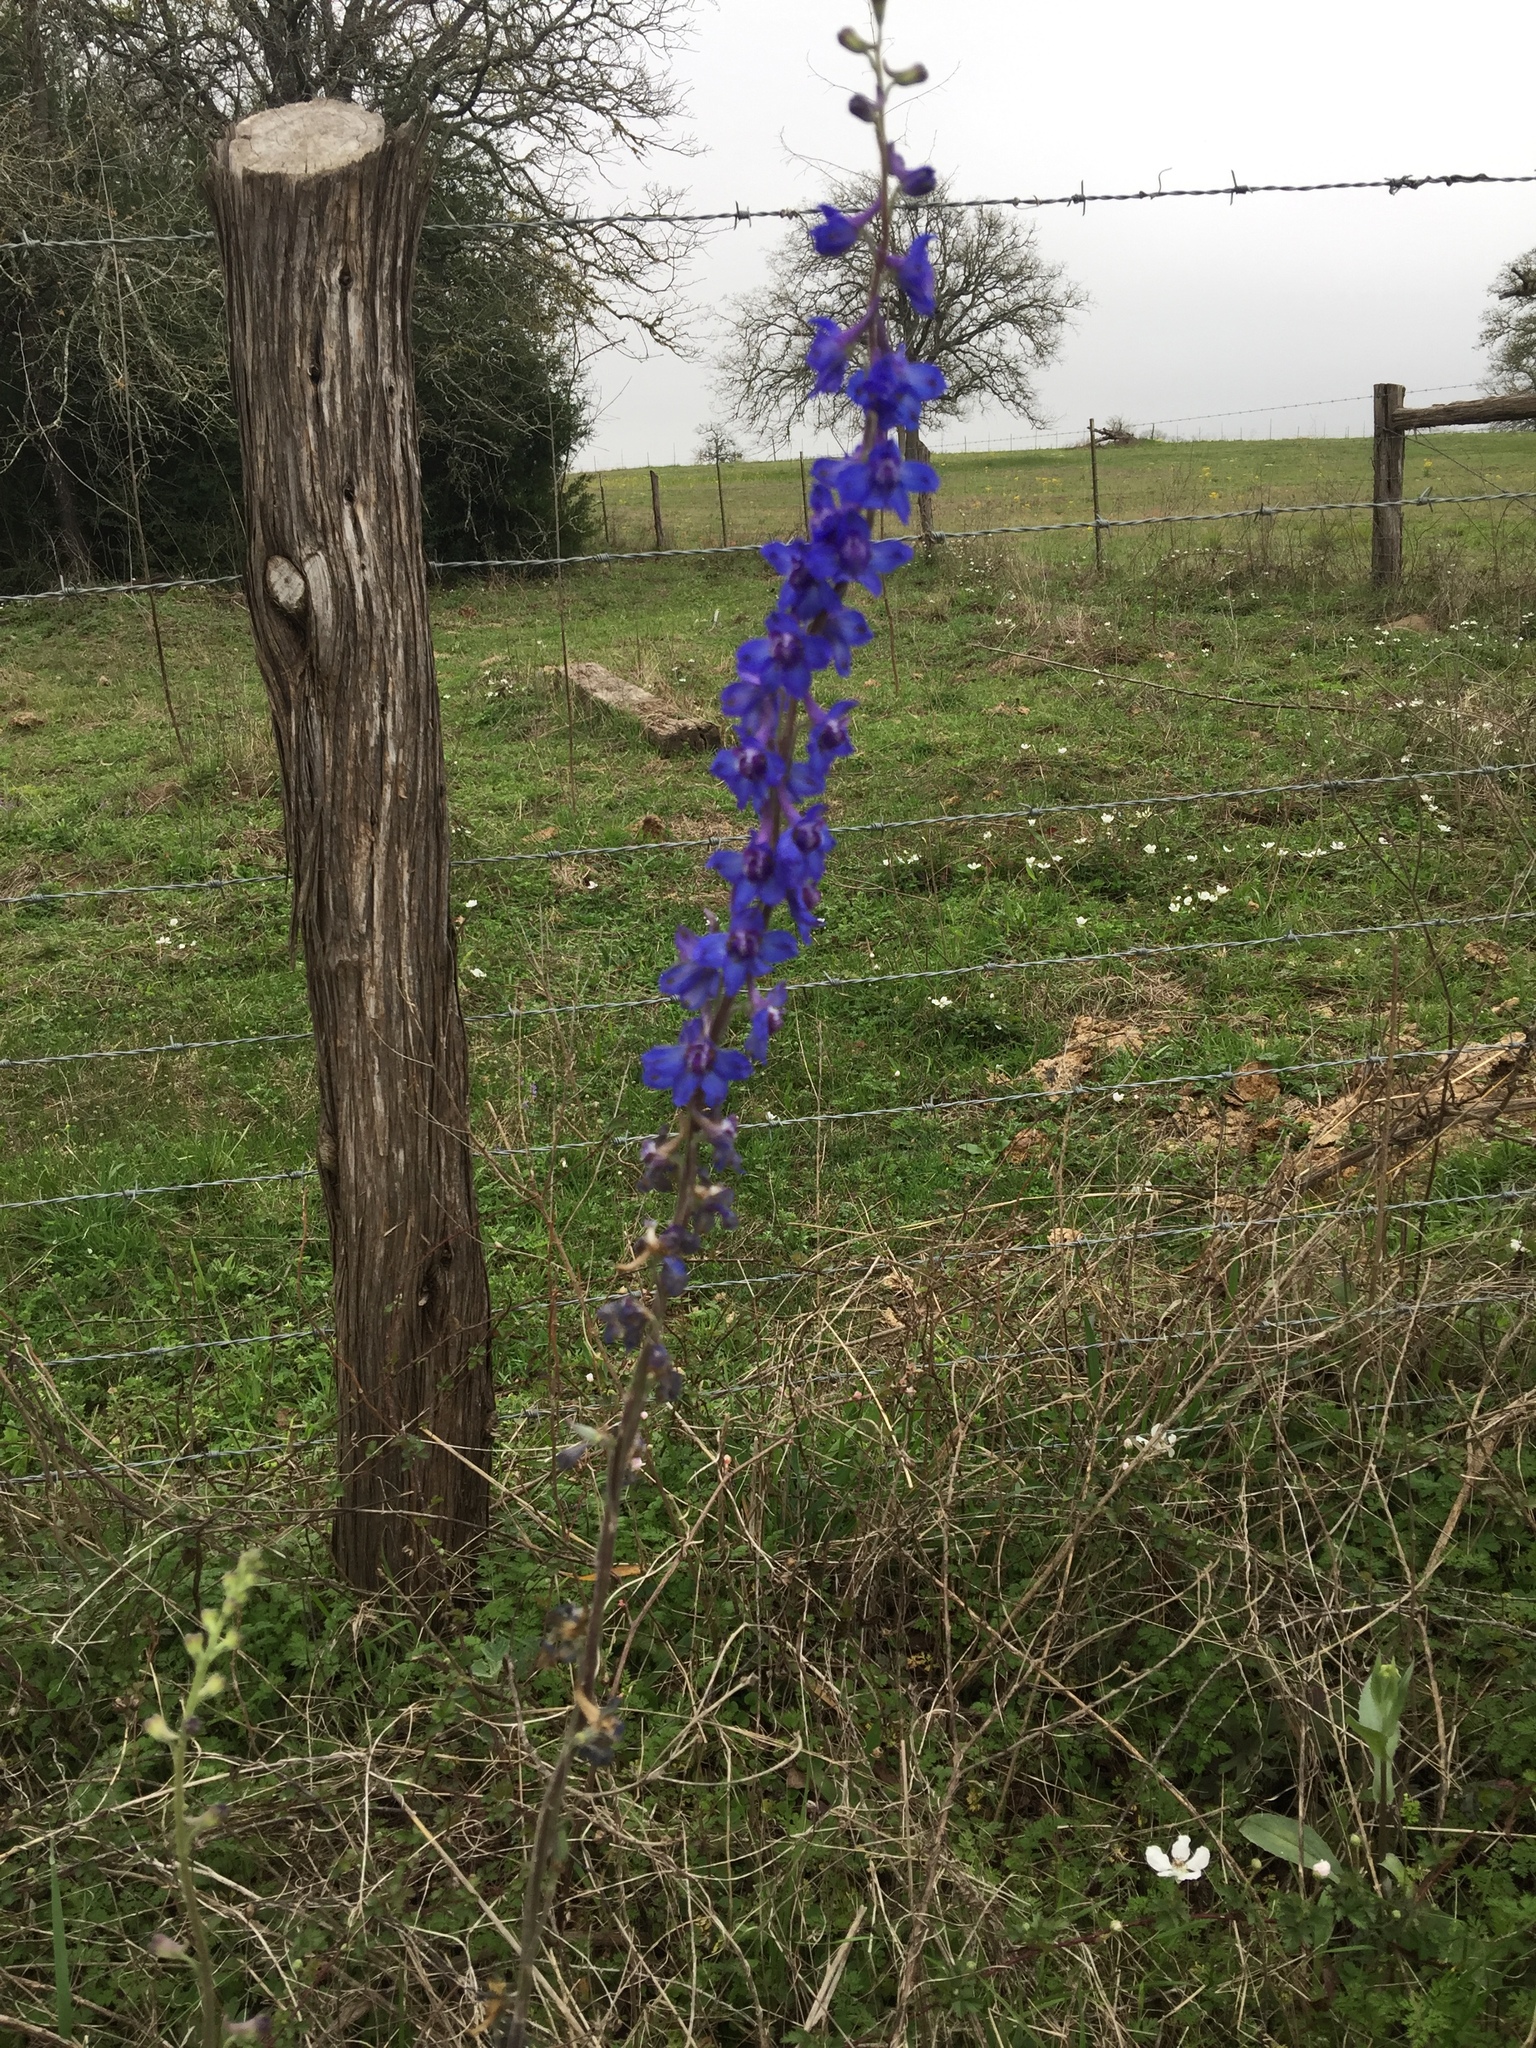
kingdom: Plantae
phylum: Tracheophyta
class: Magnoliopsida
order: Ranunculales
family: Ranunculaceae
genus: Delphinium
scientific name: Delphinium carolinianum
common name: Carolina larkspur
